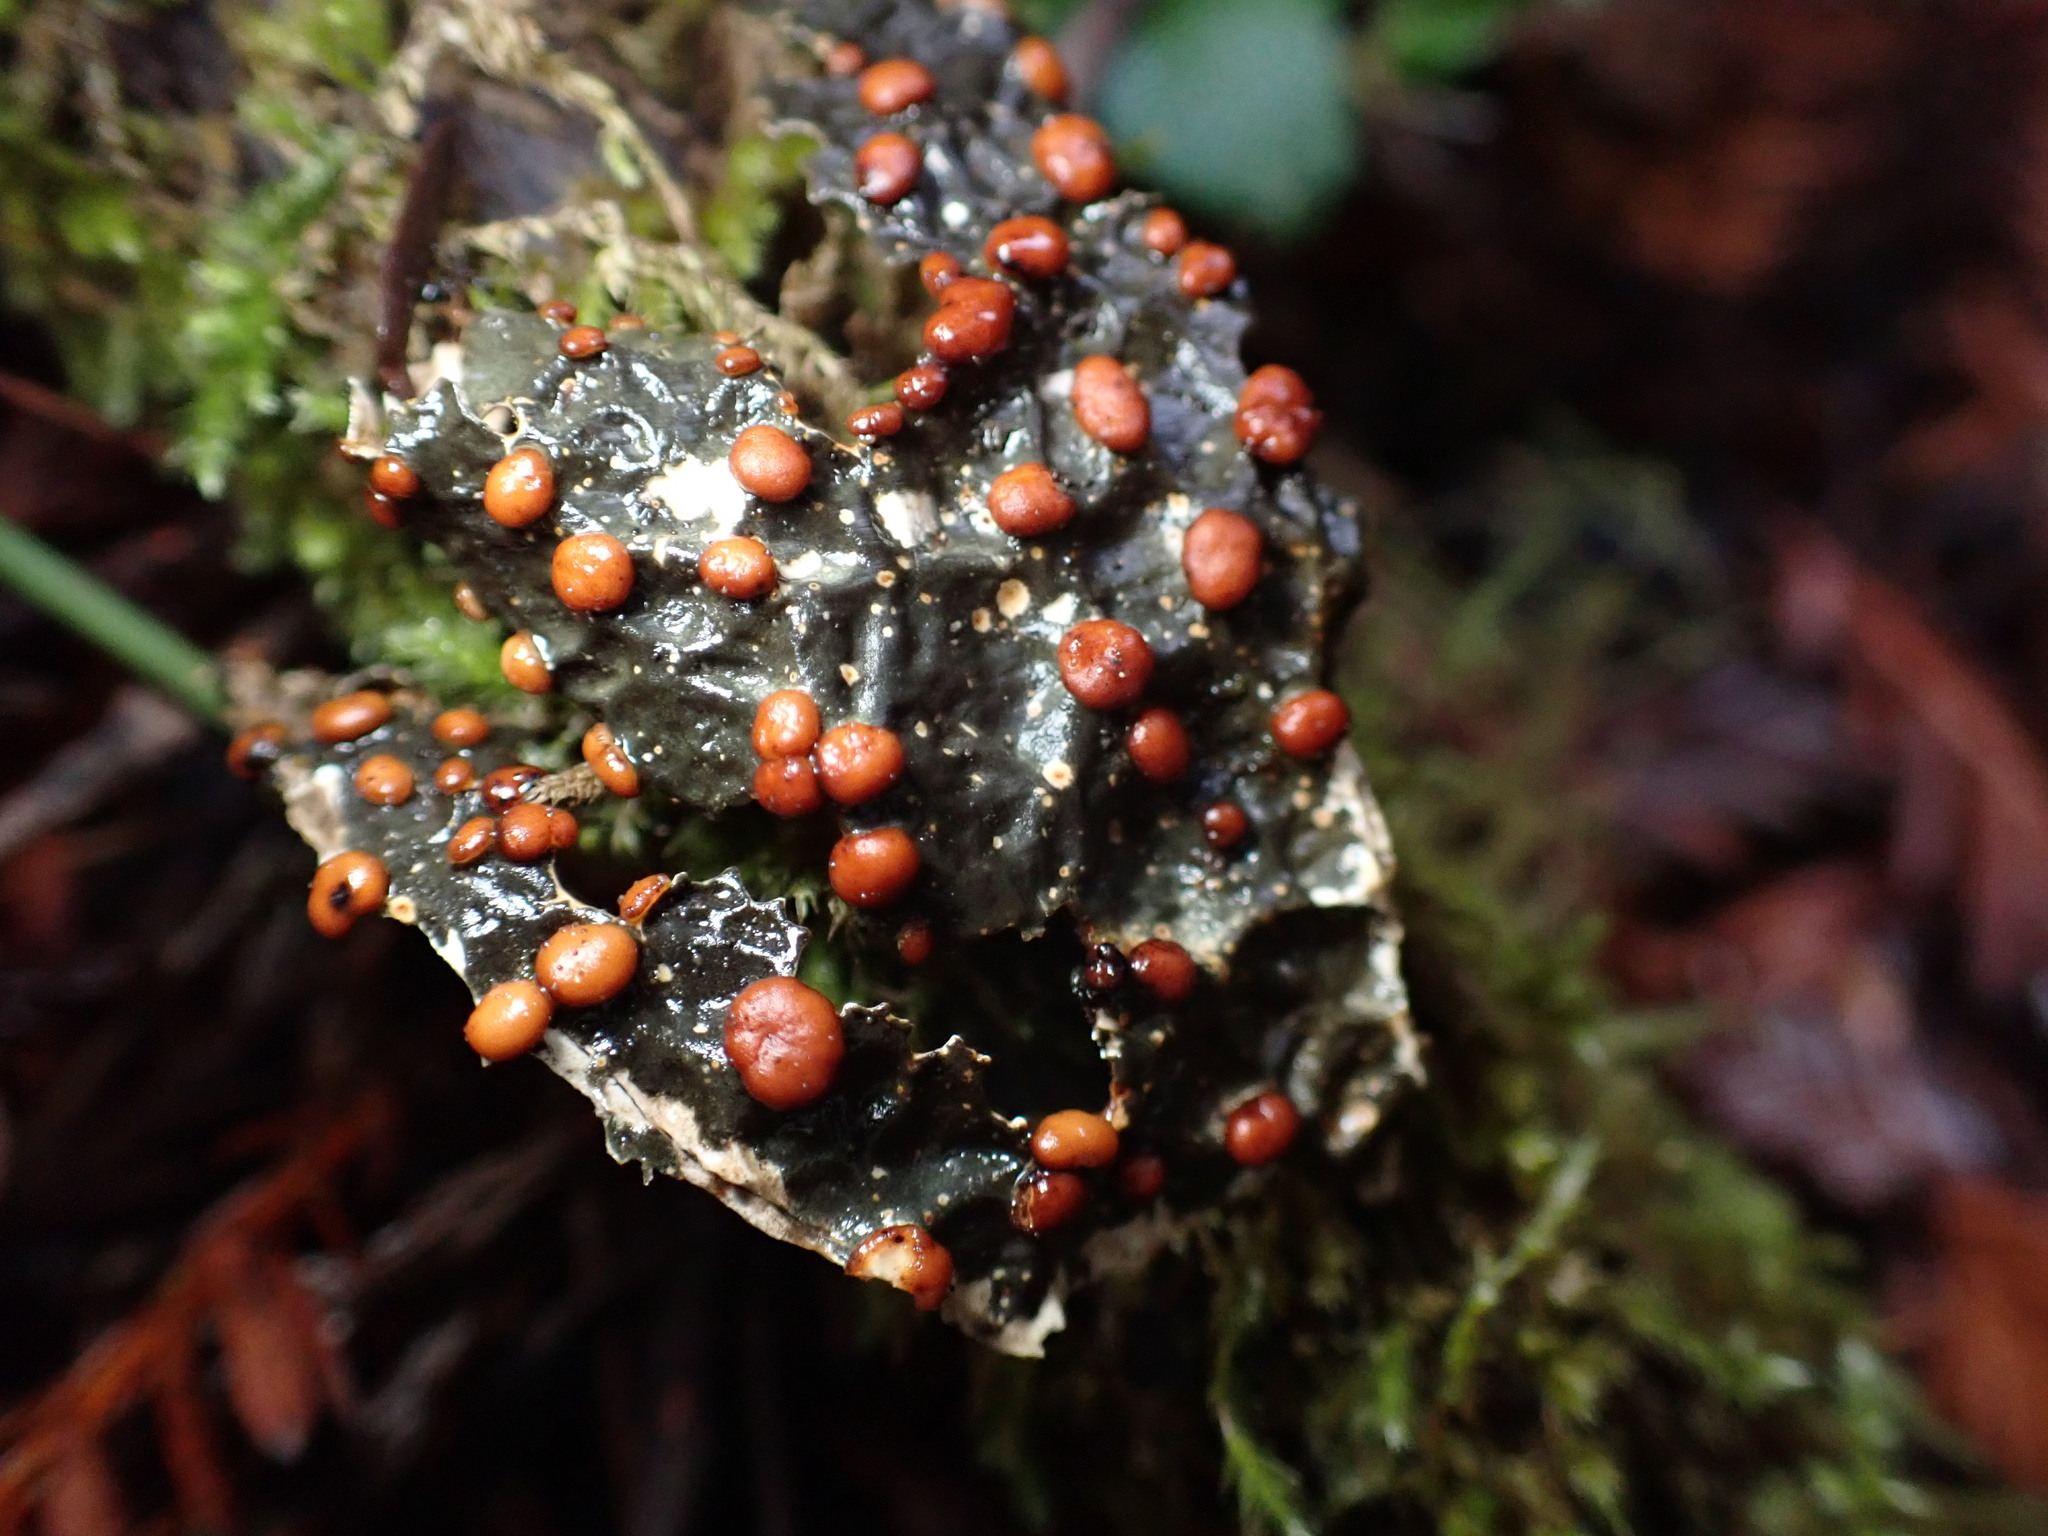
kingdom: Fungi
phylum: Ascomycota
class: Lecanoromycetes
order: Peltigerales
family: Lobariaceae
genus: Lobaria
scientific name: Lobaria anthraspis
